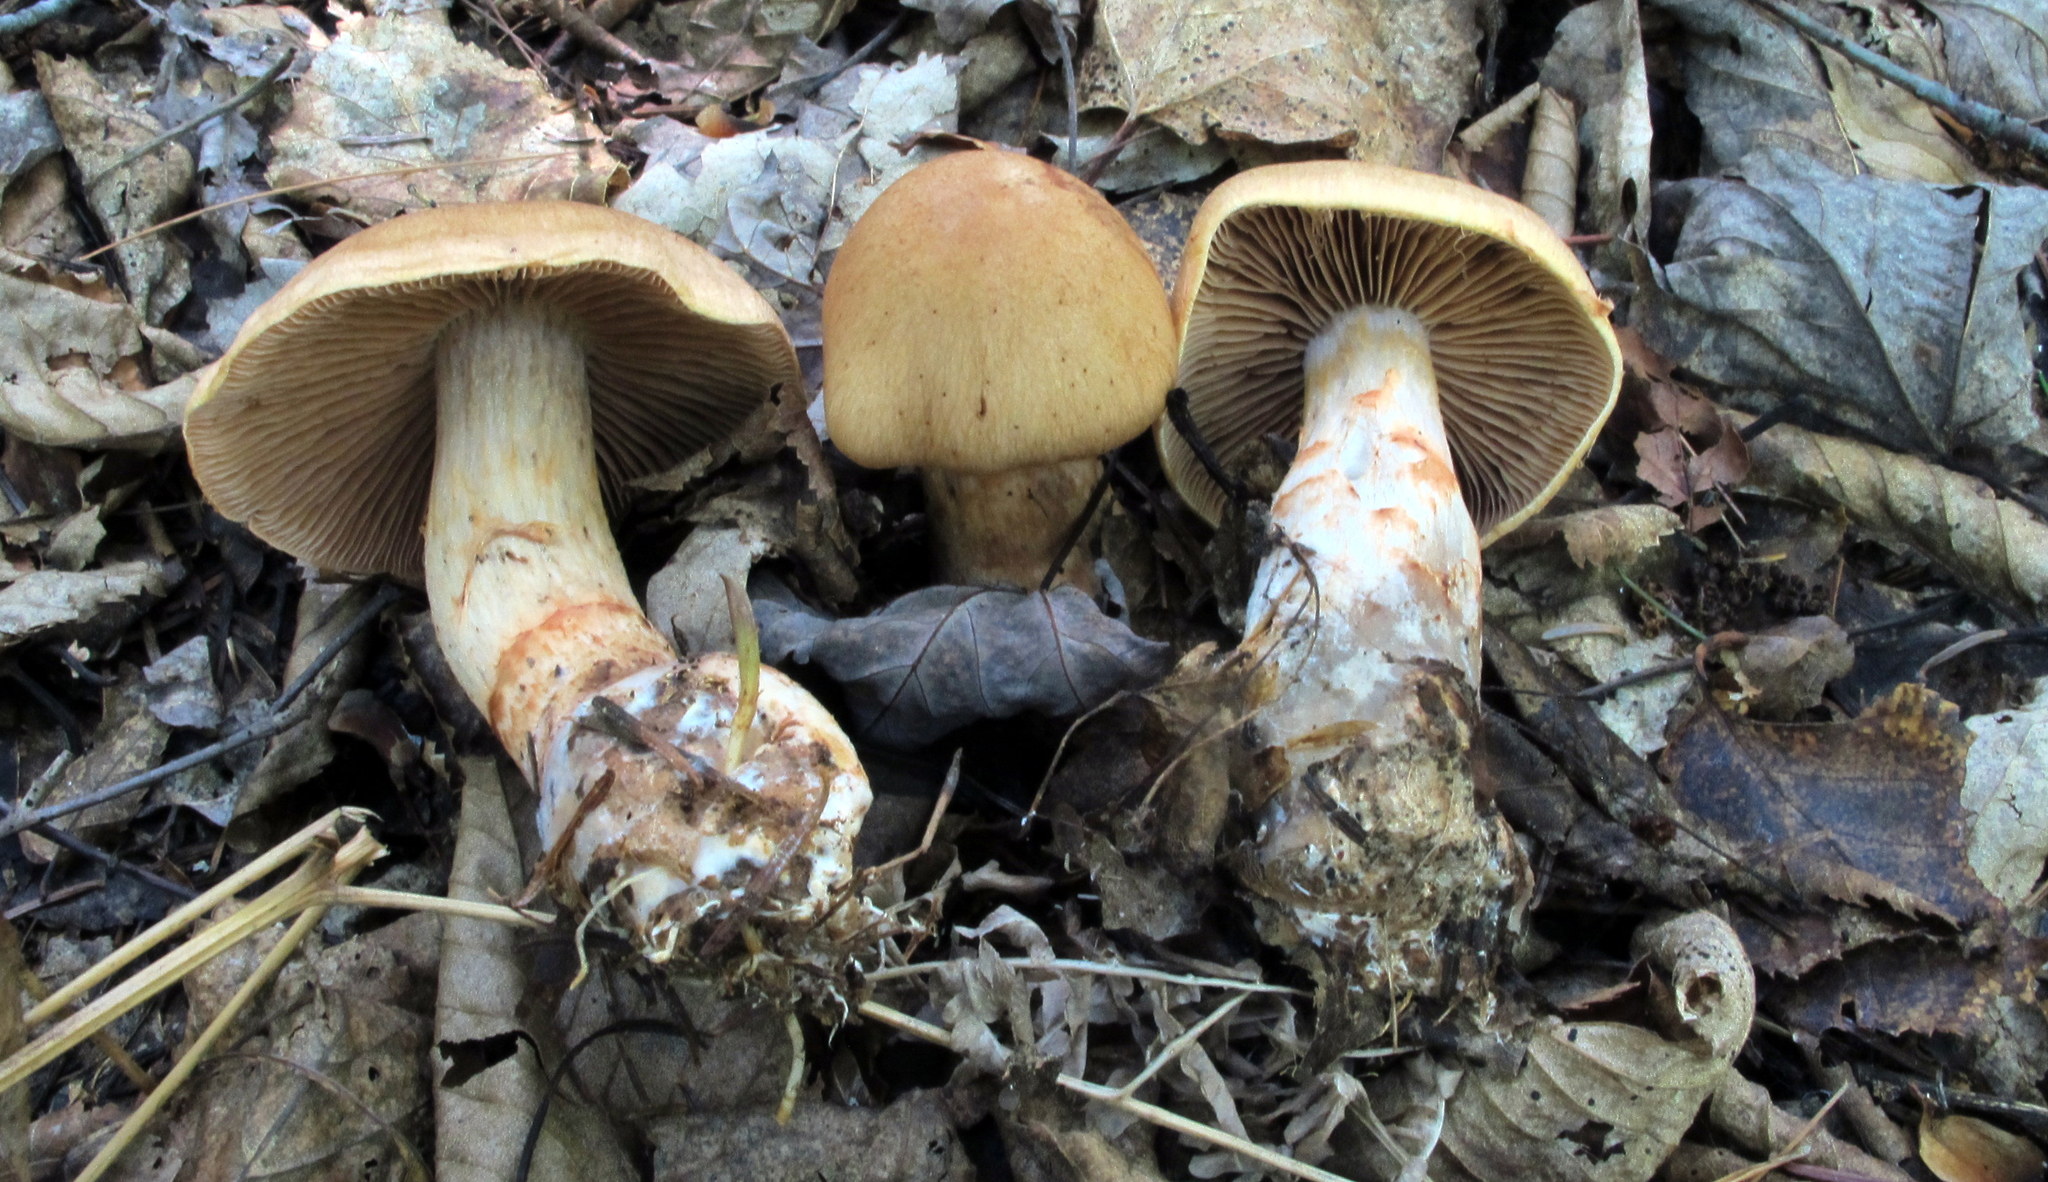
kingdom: Fungi
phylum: Basidiomycota
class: Agaricomycetes
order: Agaricales
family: Cortinariaceae
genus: Cortinarius
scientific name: Cortinarius armillatus
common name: Red banded webcap
